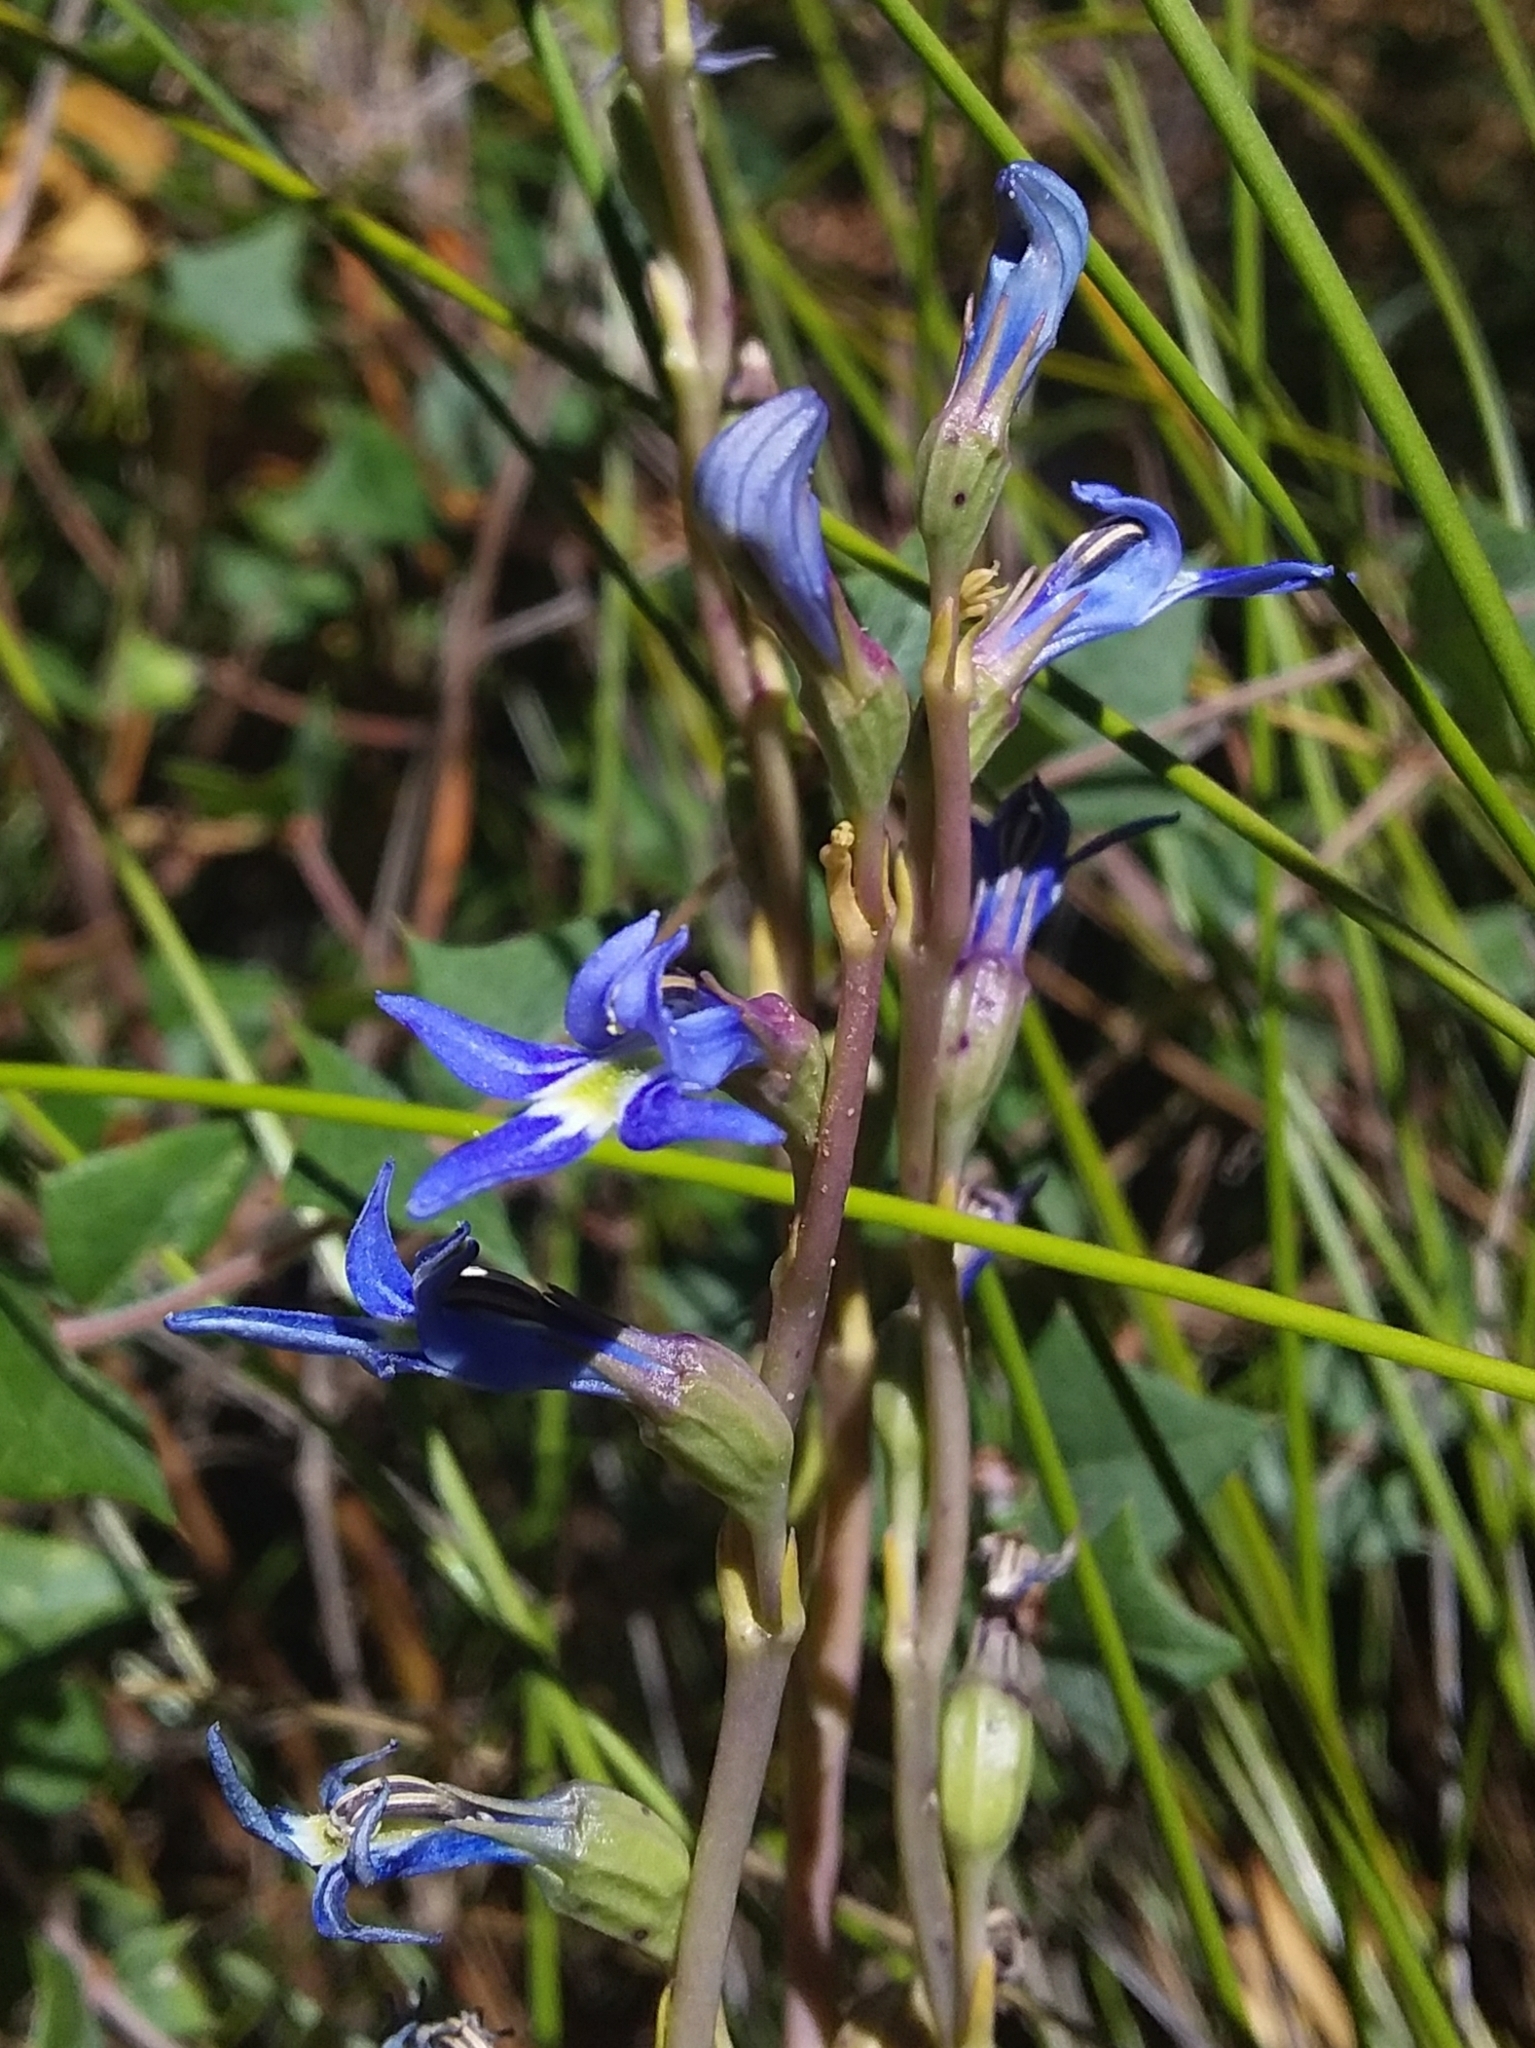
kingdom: Plantae
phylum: Tracheophyta
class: Magnoliopsida
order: Asterales
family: Campanulaceae
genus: Lobelia
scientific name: Lobelia gibbosa
